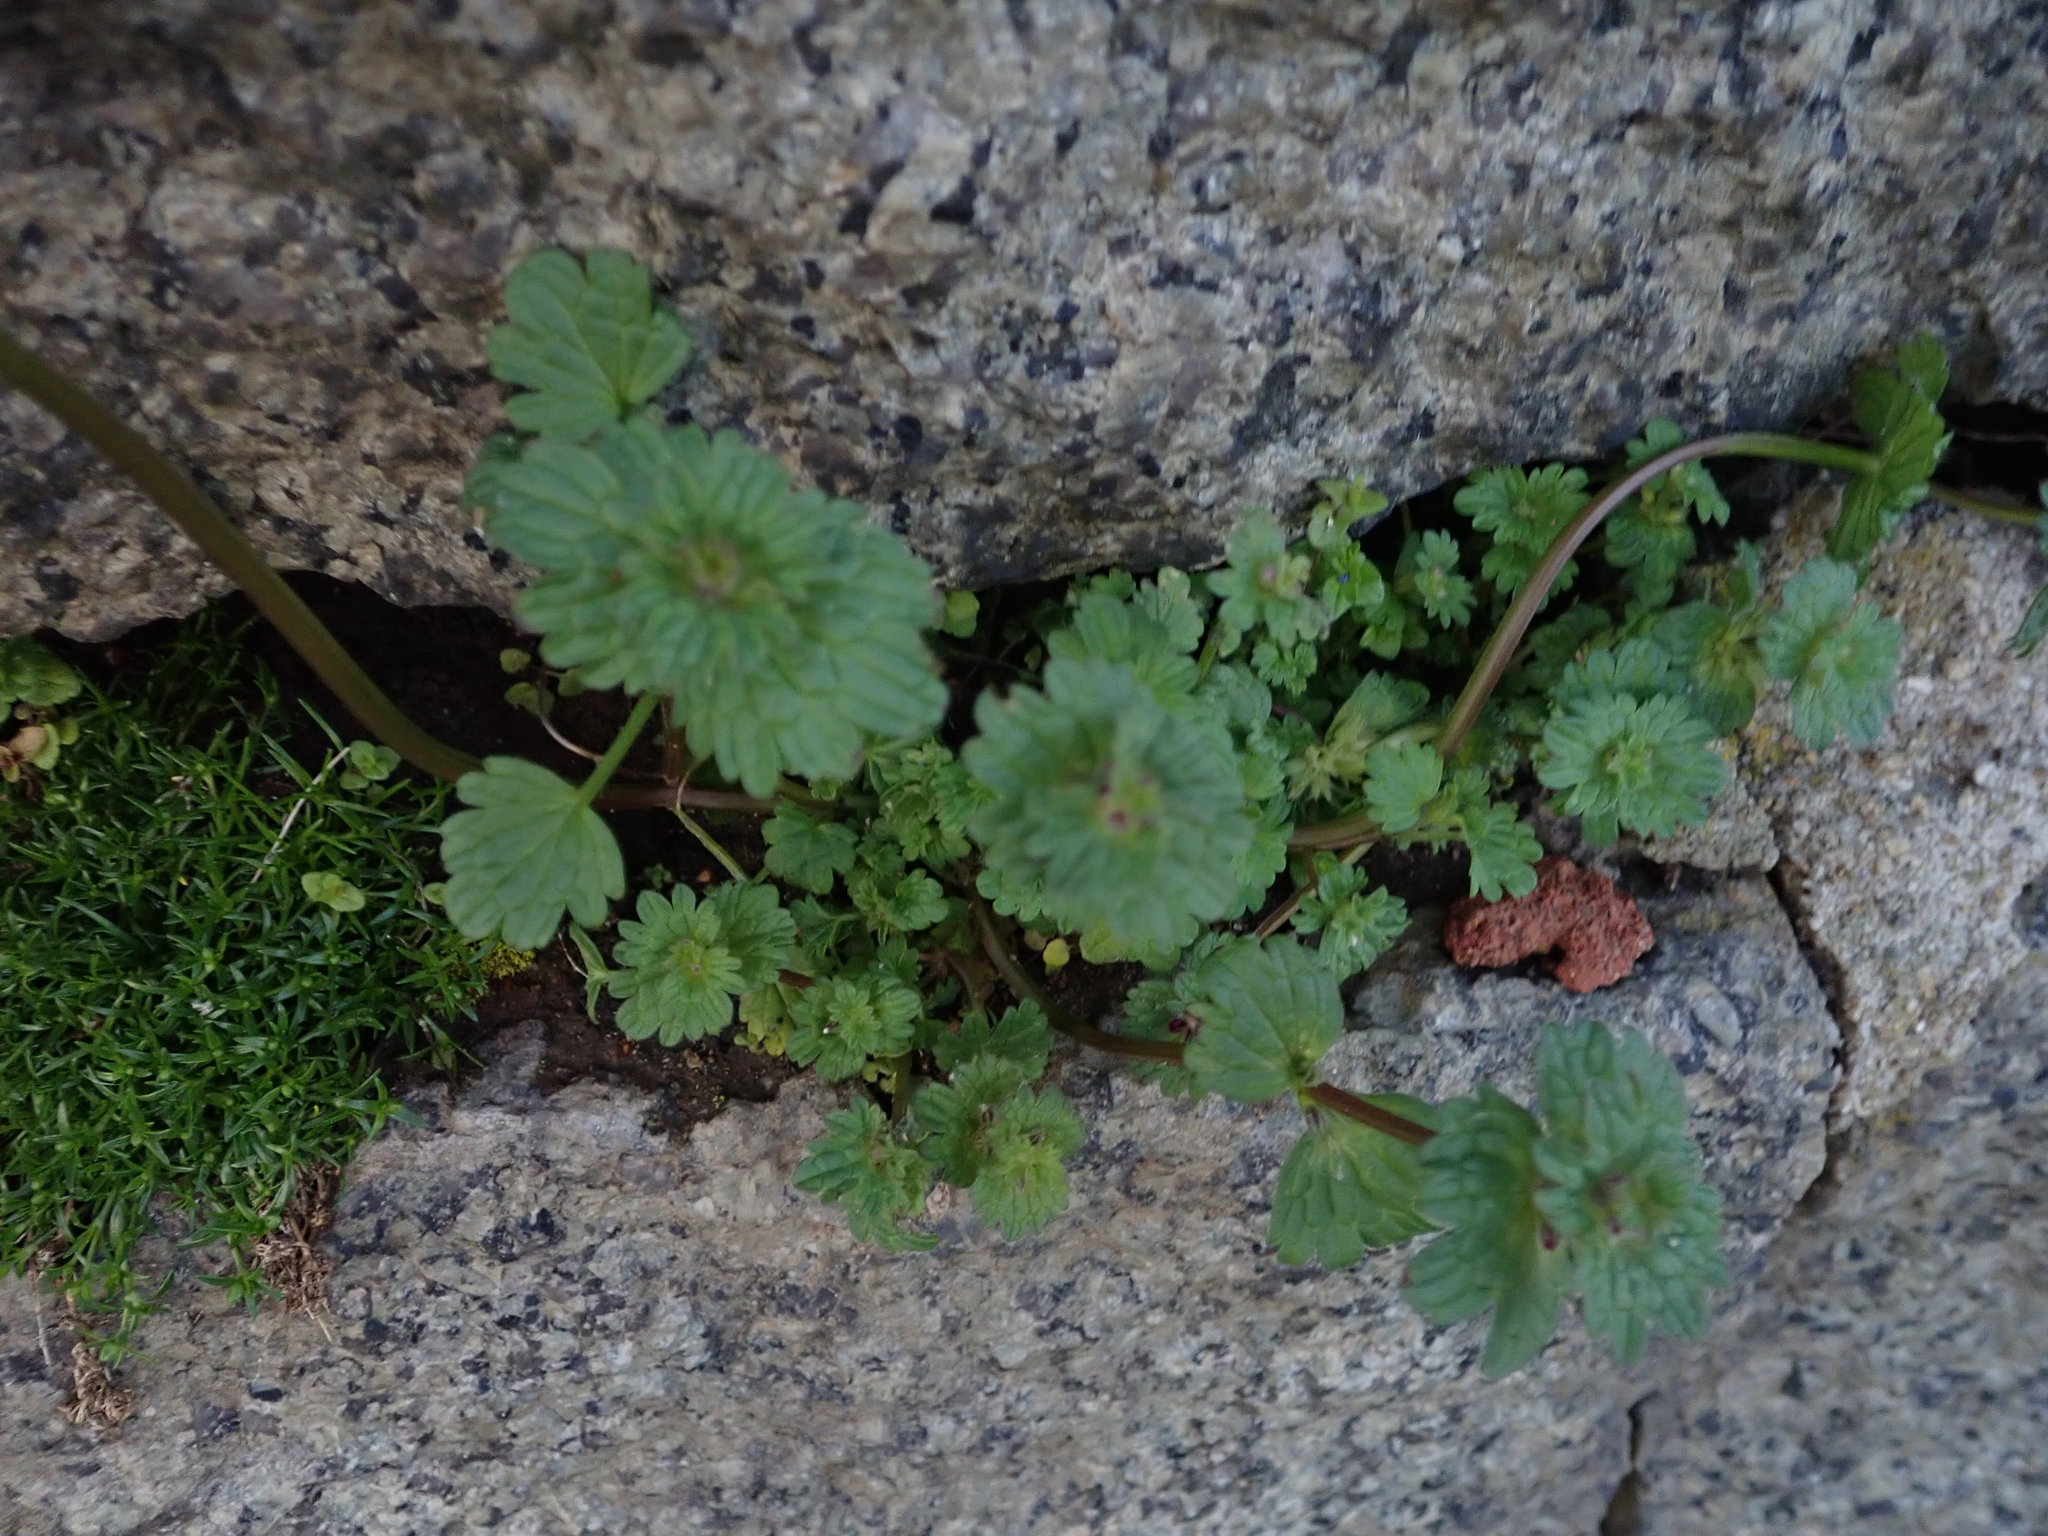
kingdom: Plantae
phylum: Tracheophyta
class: Magnoliopsida
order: Lamiales
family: Lamiaceae
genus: Lamium
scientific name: Lamium amplexicaule
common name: Henbit dead-nettle
